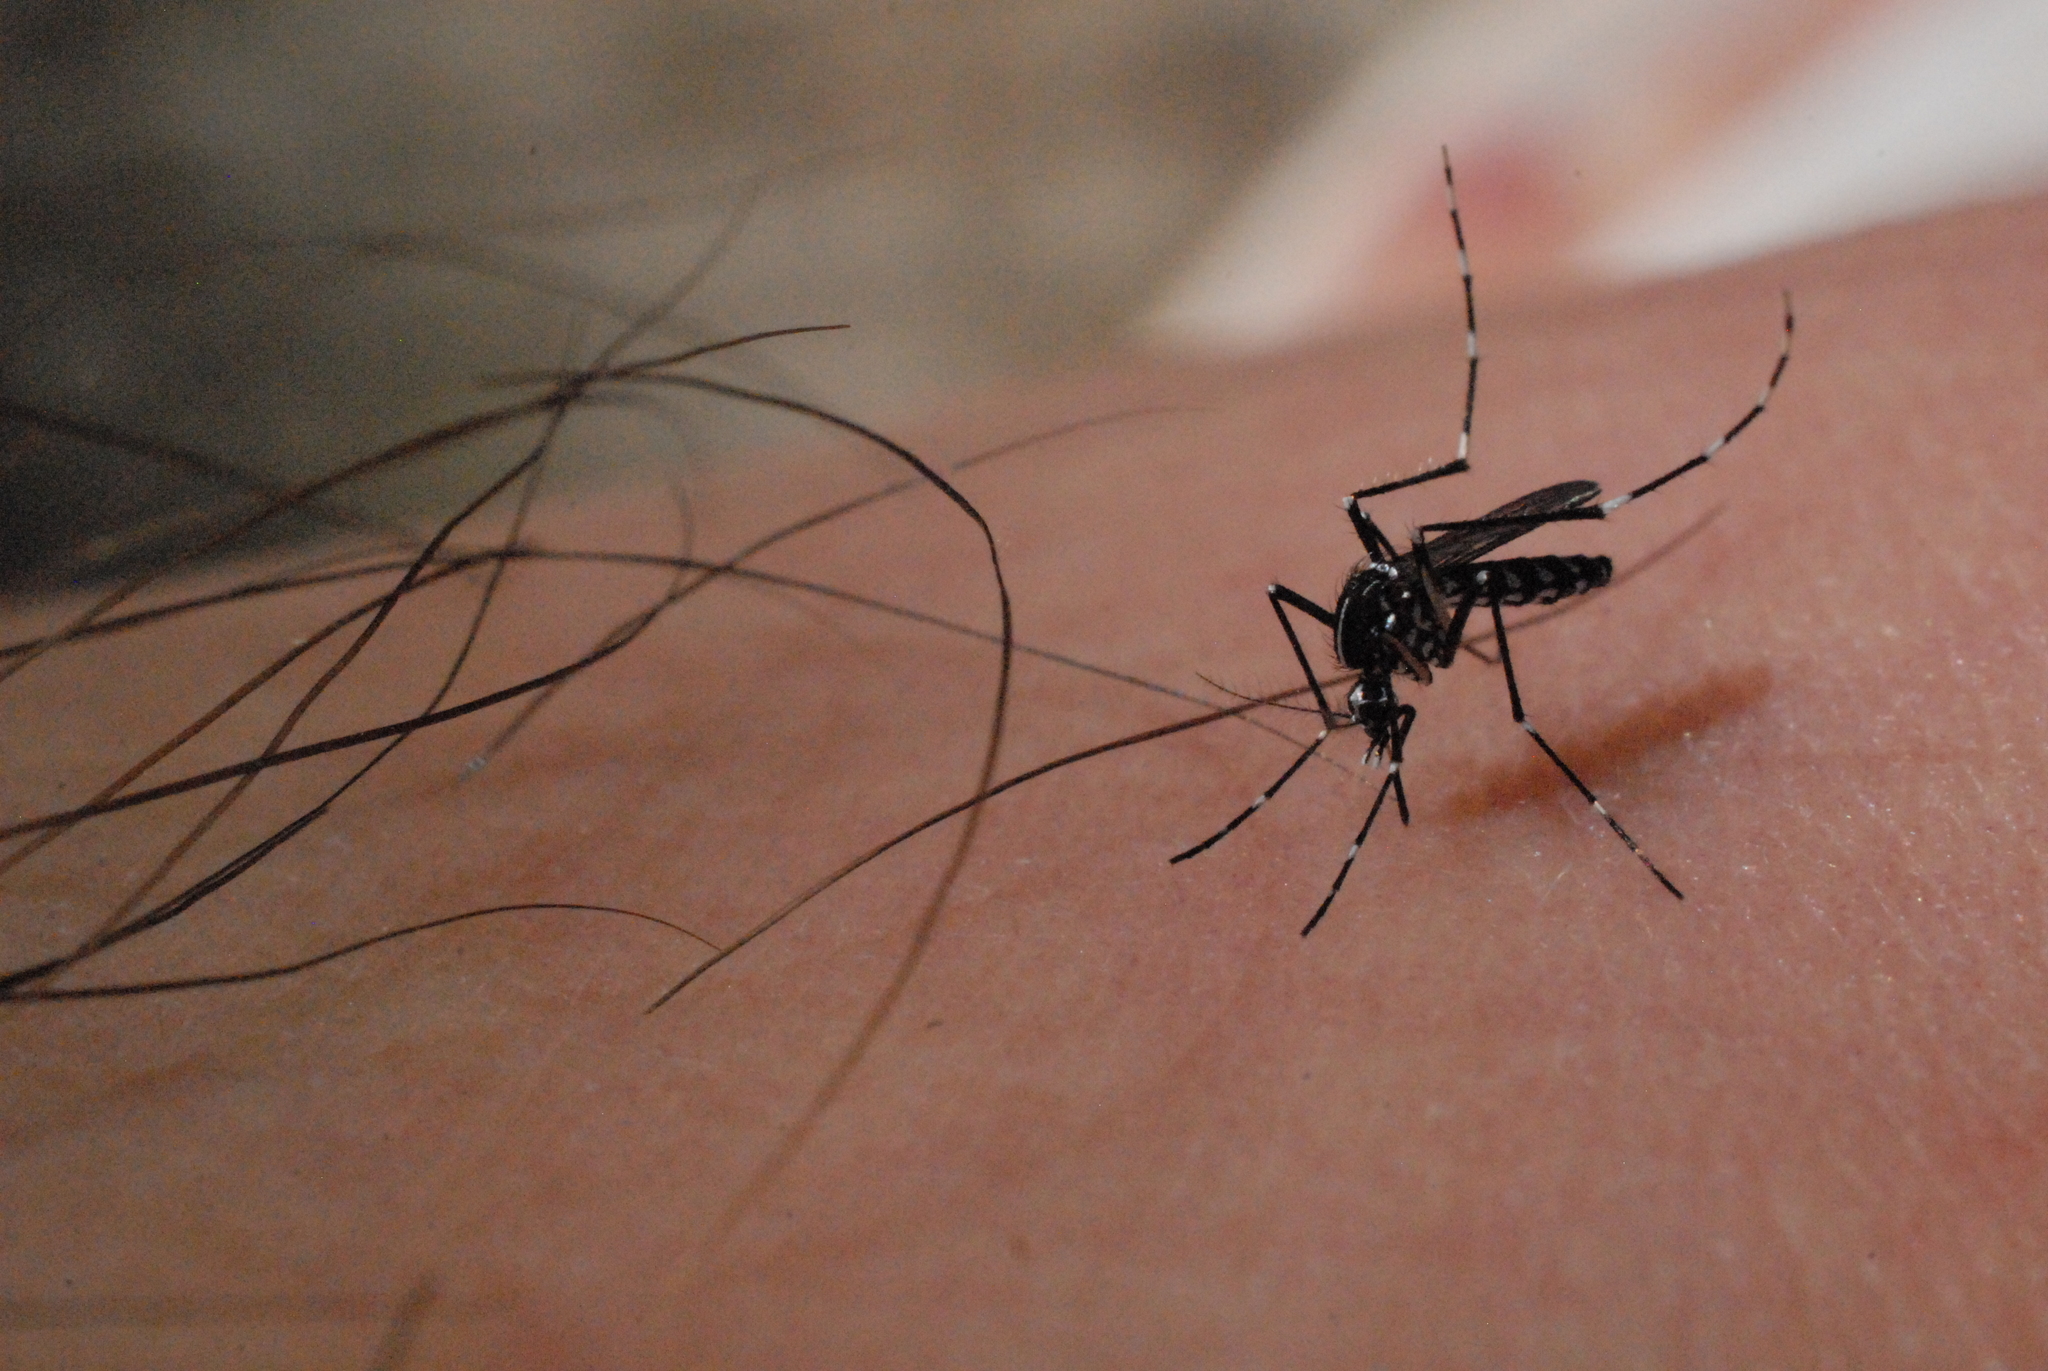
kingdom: Animalia
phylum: Arthropoda
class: Insecta
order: Diptera
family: Culicidae
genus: Aedes
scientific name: Aedes albopictus
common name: Tiger mosquito
